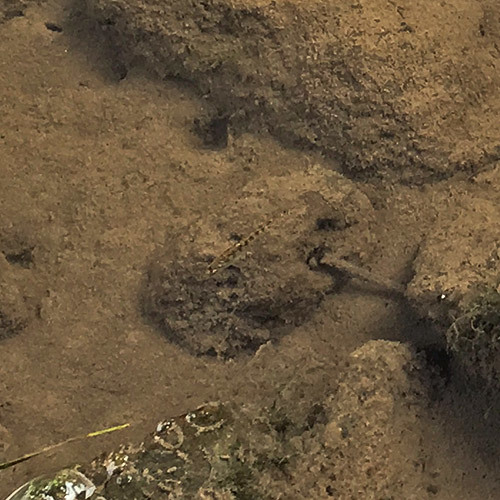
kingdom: Animalia
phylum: Chordata
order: Gasterosteiformes
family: Gasterosteidae
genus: Gasterosteus
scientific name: Gasterosteus aculeatus
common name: Three-spined stickleback
